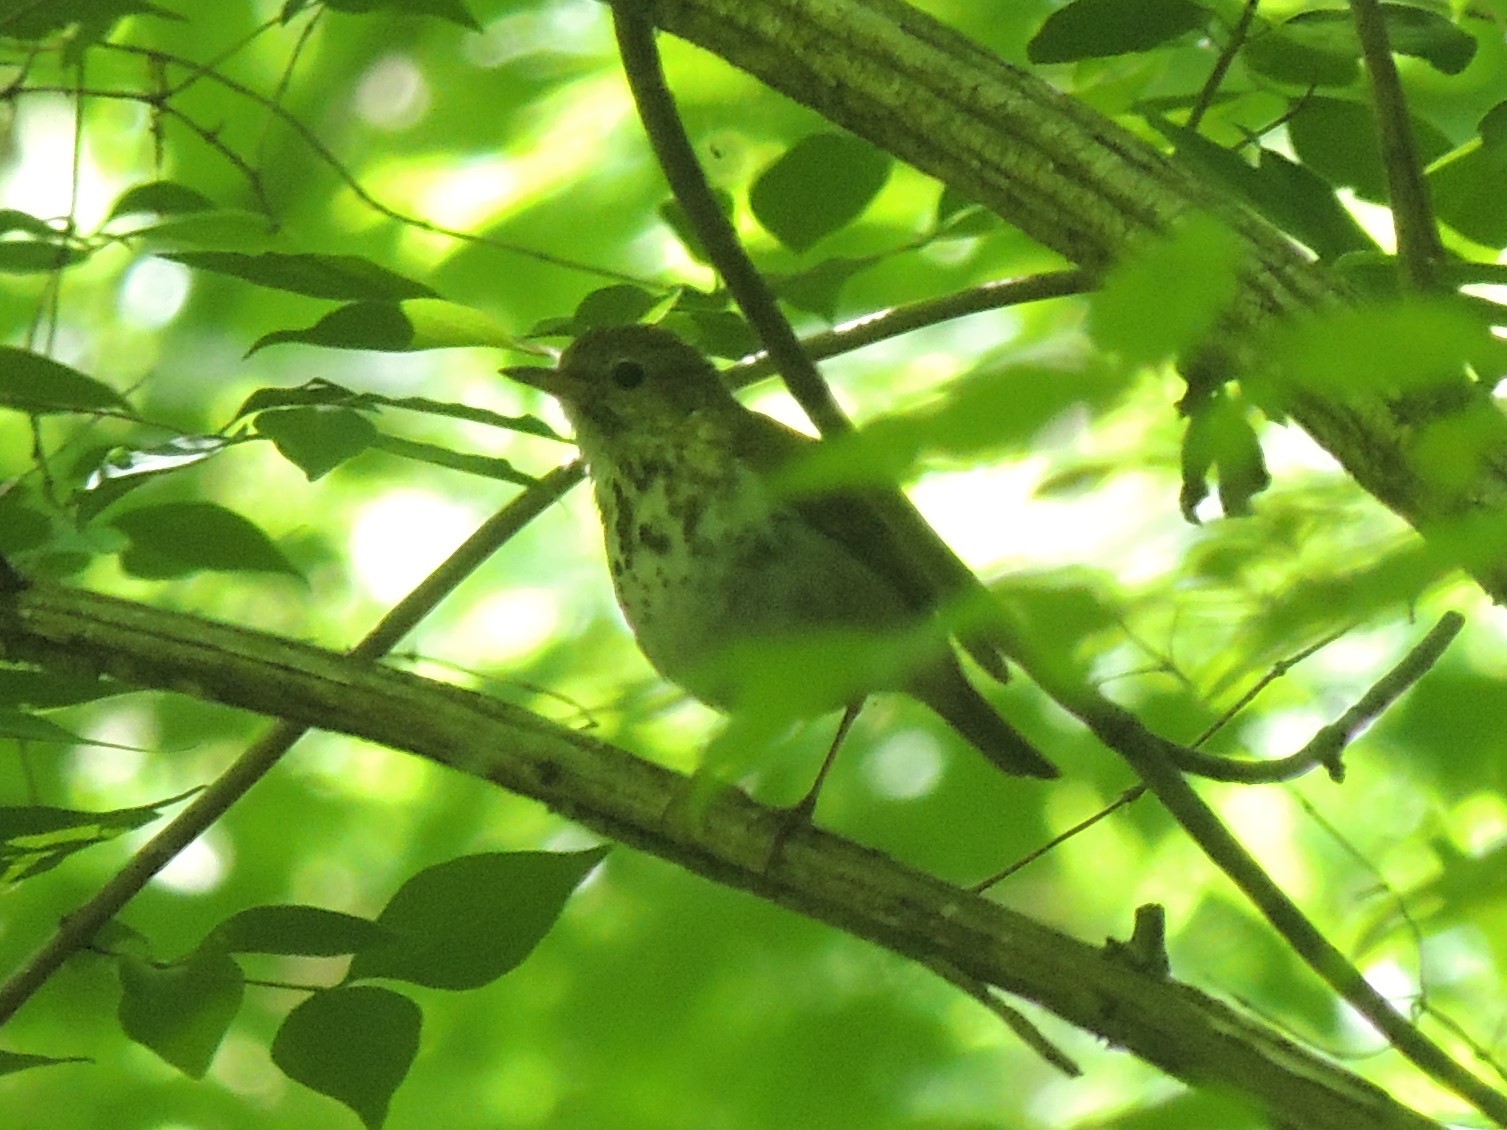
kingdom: Animalia
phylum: Chordata
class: Aves
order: Passeriformes
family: Turdidae
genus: Catharus
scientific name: Catharus guttatus
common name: Hermit thrush
